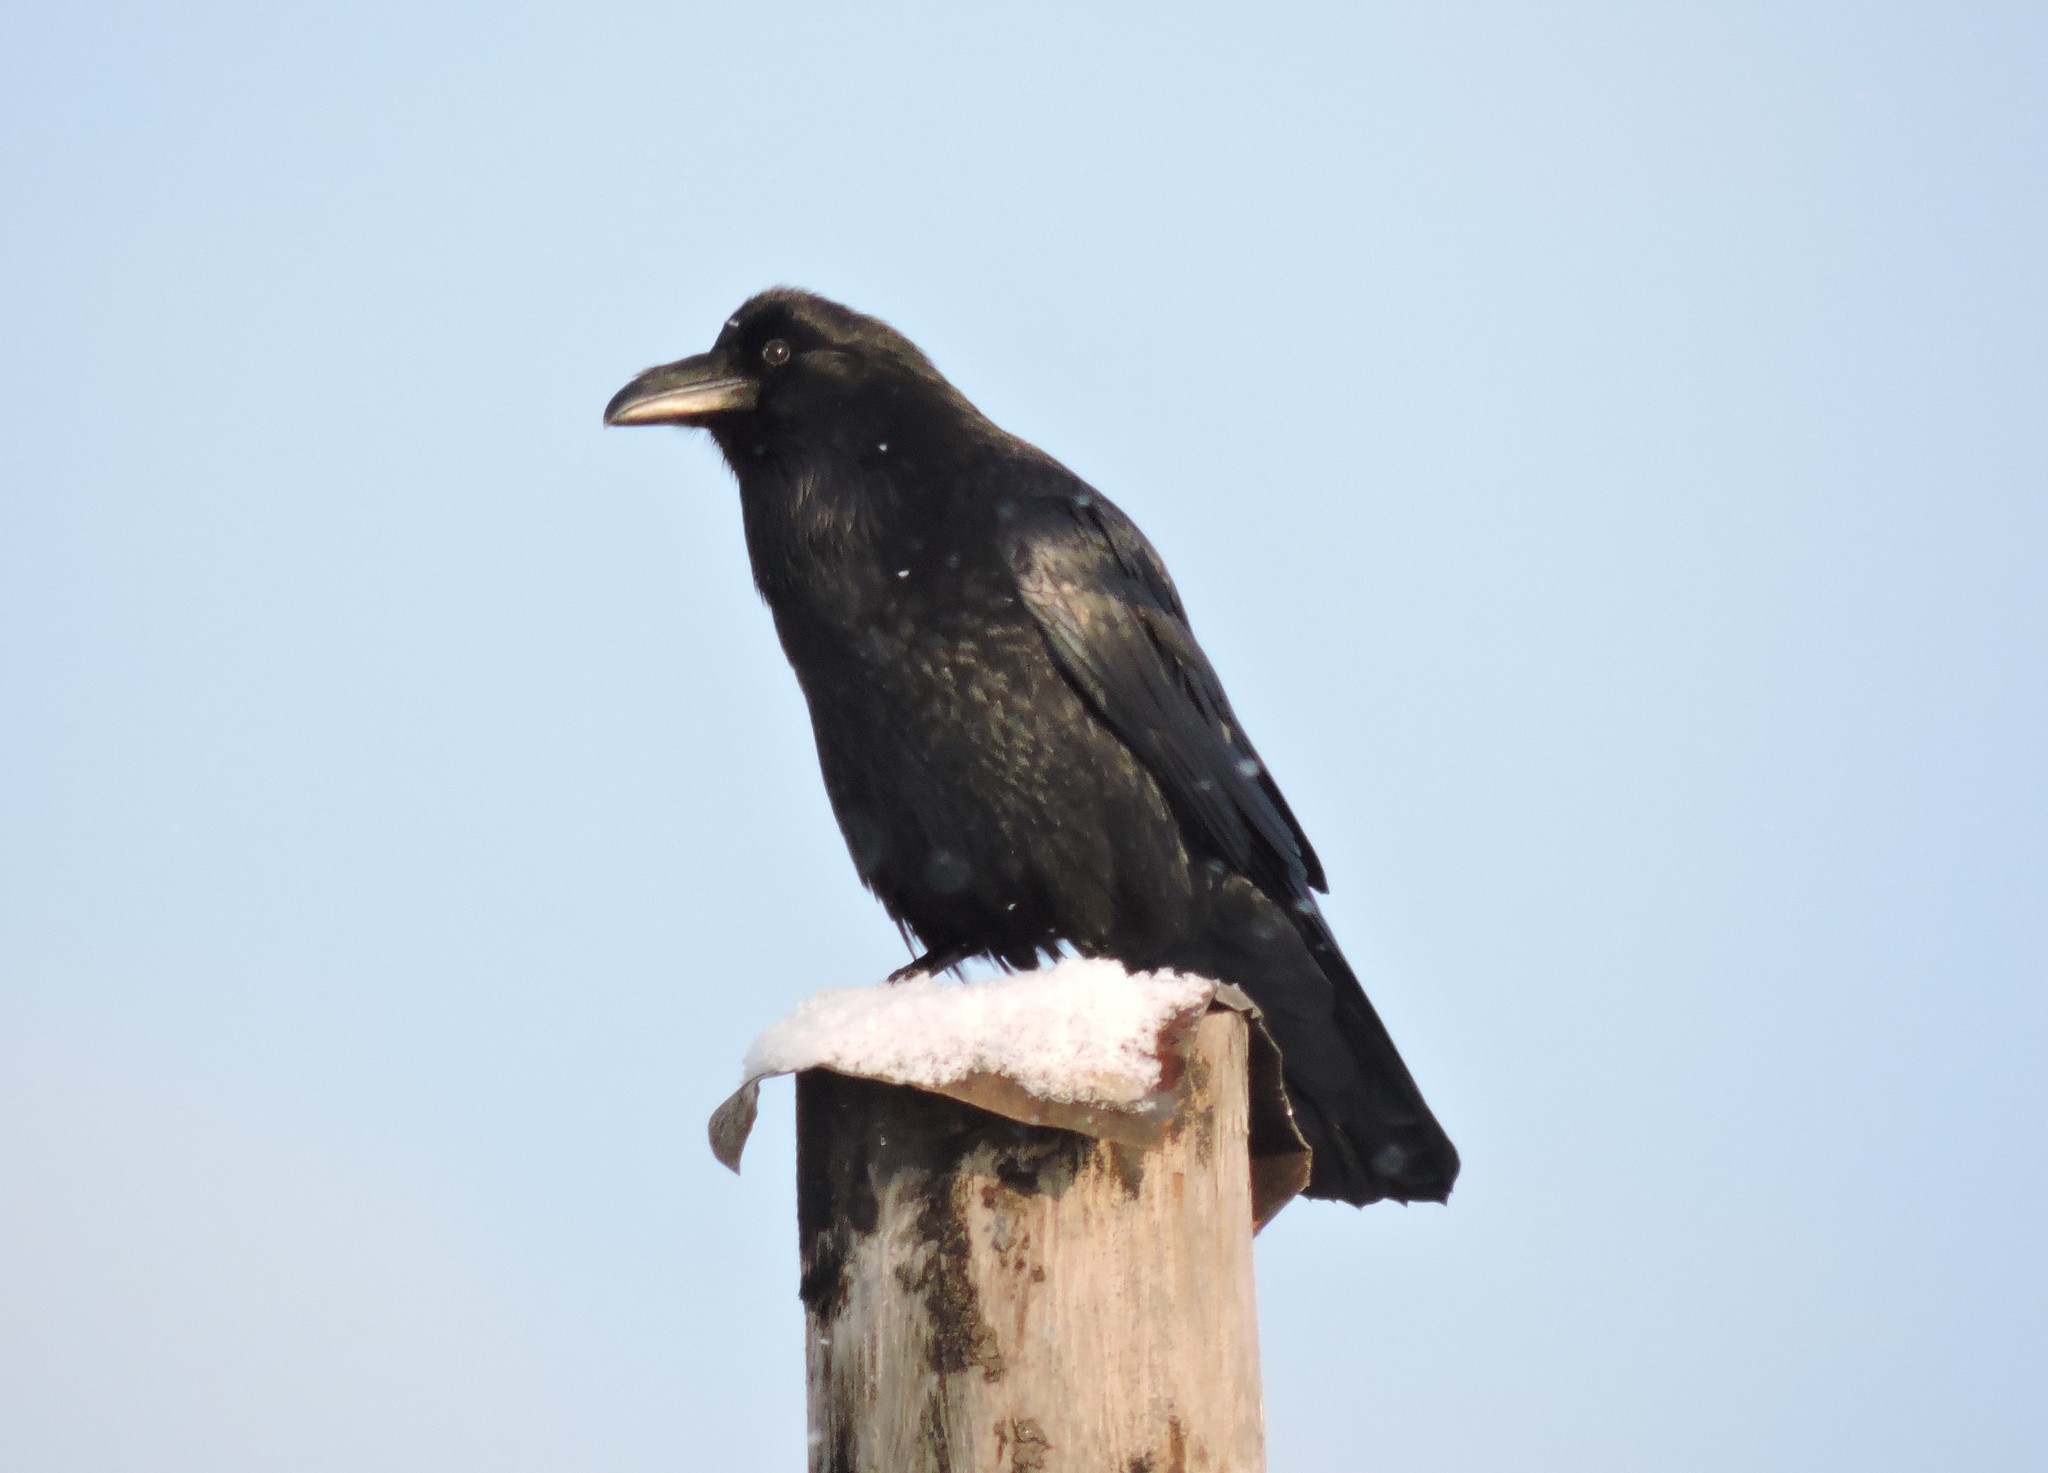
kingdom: Animalia
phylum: Chordata
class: Aves
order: Passeriformes
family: Corvidae
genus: Corvus
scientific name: Corvus corax
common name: Common raven
